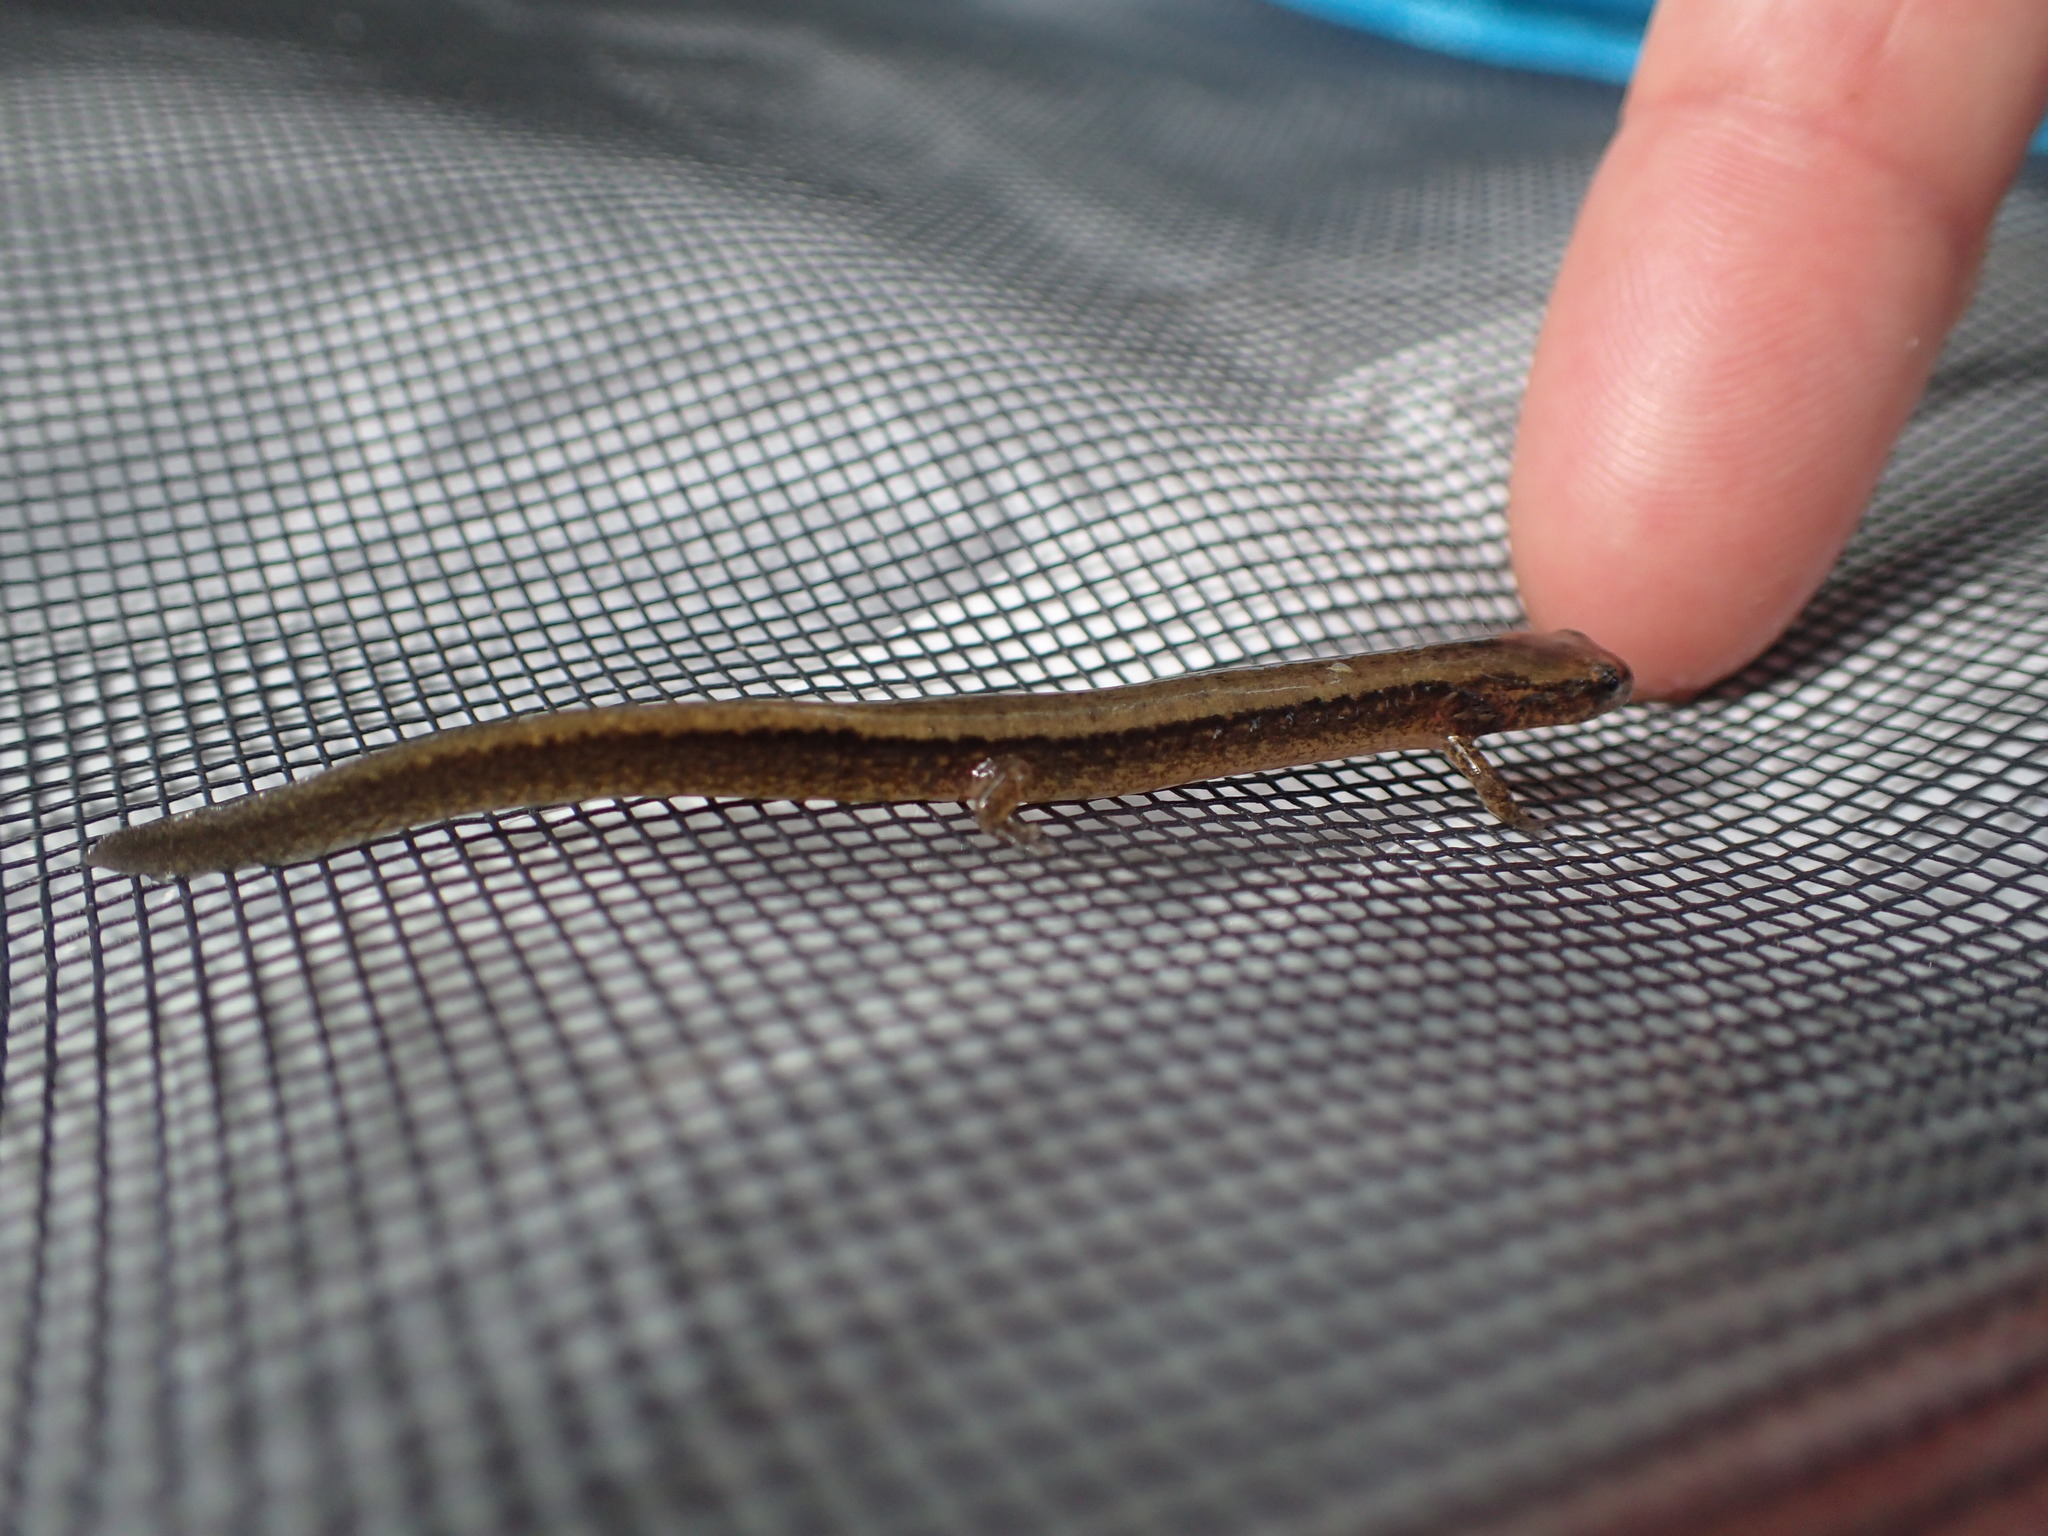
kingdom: Animalia
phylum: Chordata
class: Amphibia
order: Caudata
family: Plethodontidae
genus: Eurycea
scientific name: Eurycea cirrigera
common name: Southern two-lined salamander
